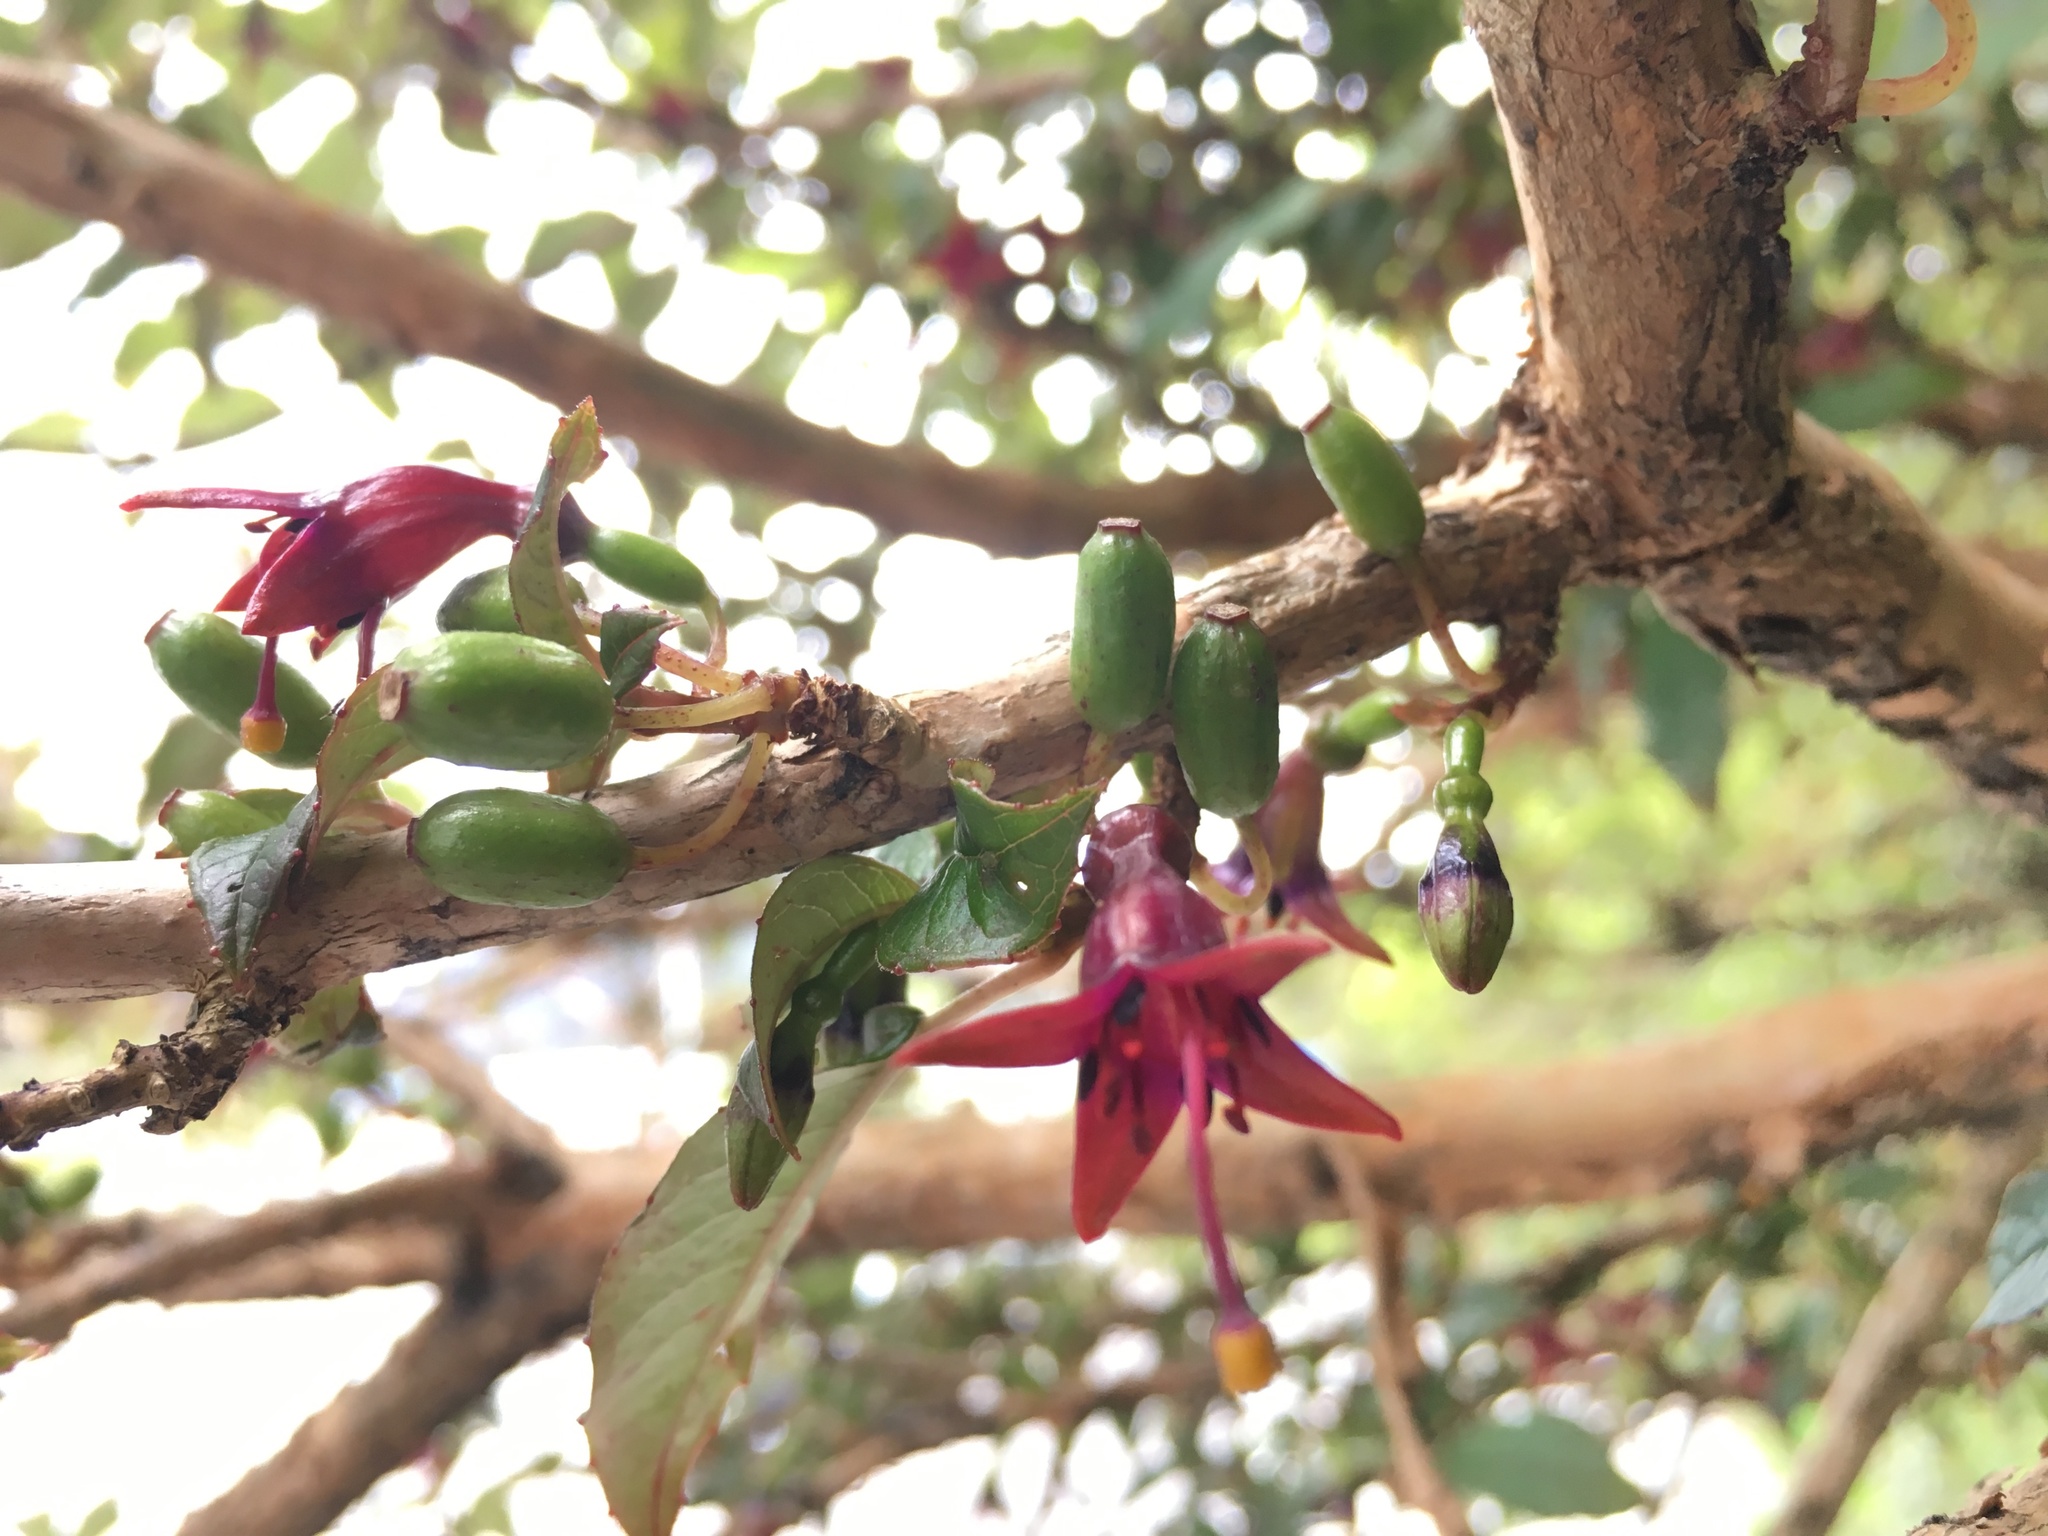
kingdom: Plantae
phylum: Tracheophyta
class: Magnoliopsida
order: Myrtales
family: Onagraceae
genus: Fuchsia
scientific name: Fuchsia excorticata
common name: Tree fuchsia
